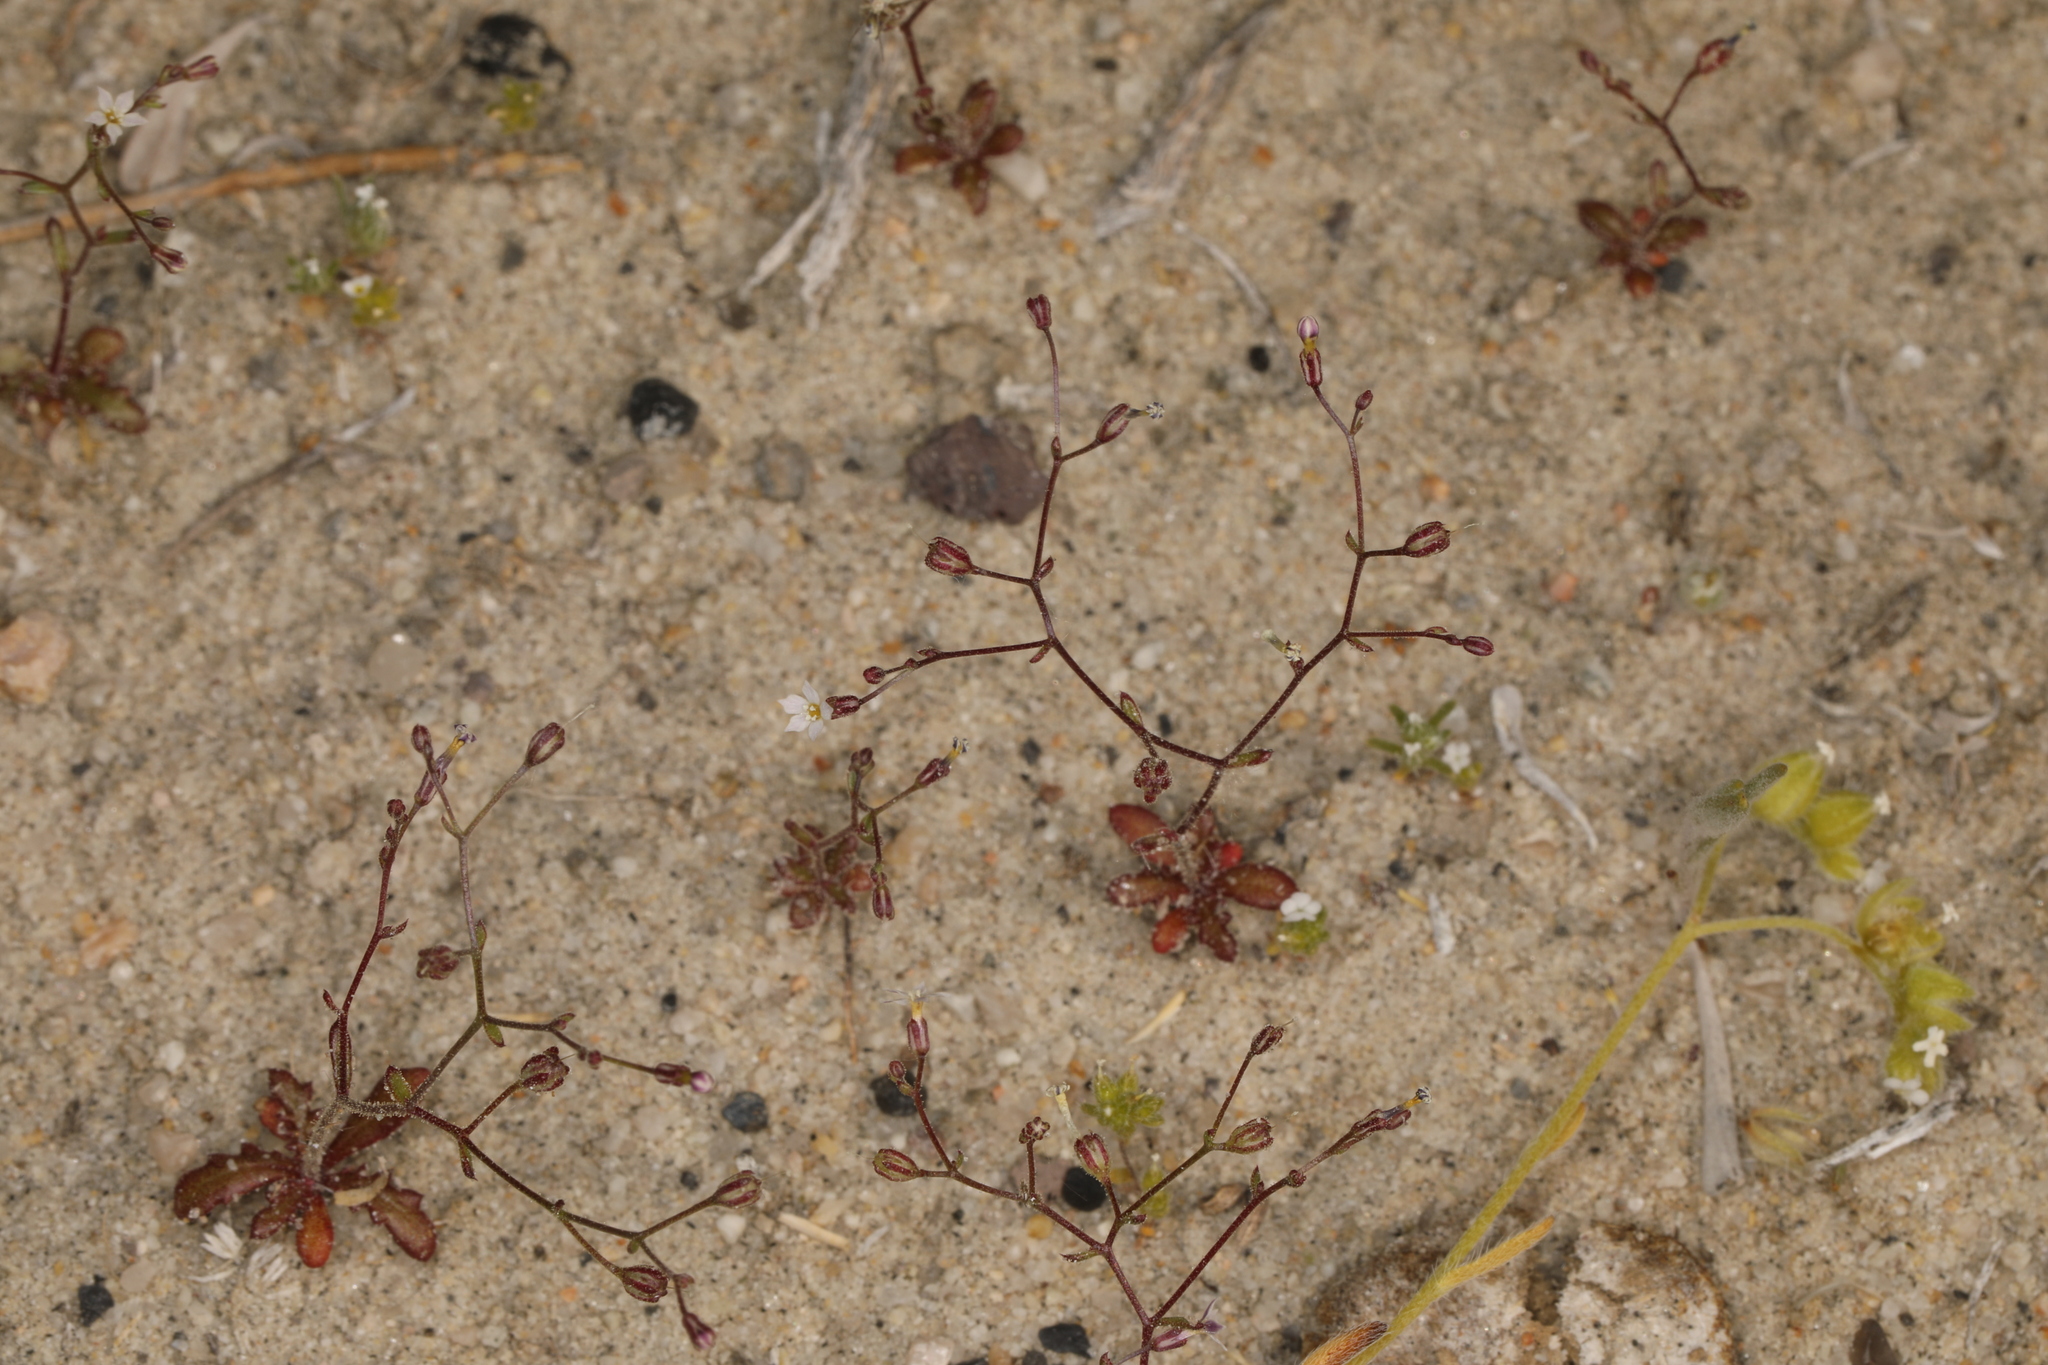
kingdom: Plantae
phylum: Tracheophyta
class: Magnoliopsida
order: Ericales
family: Polemoniaceae
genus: Aliciella
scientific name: Aliciella humillima
